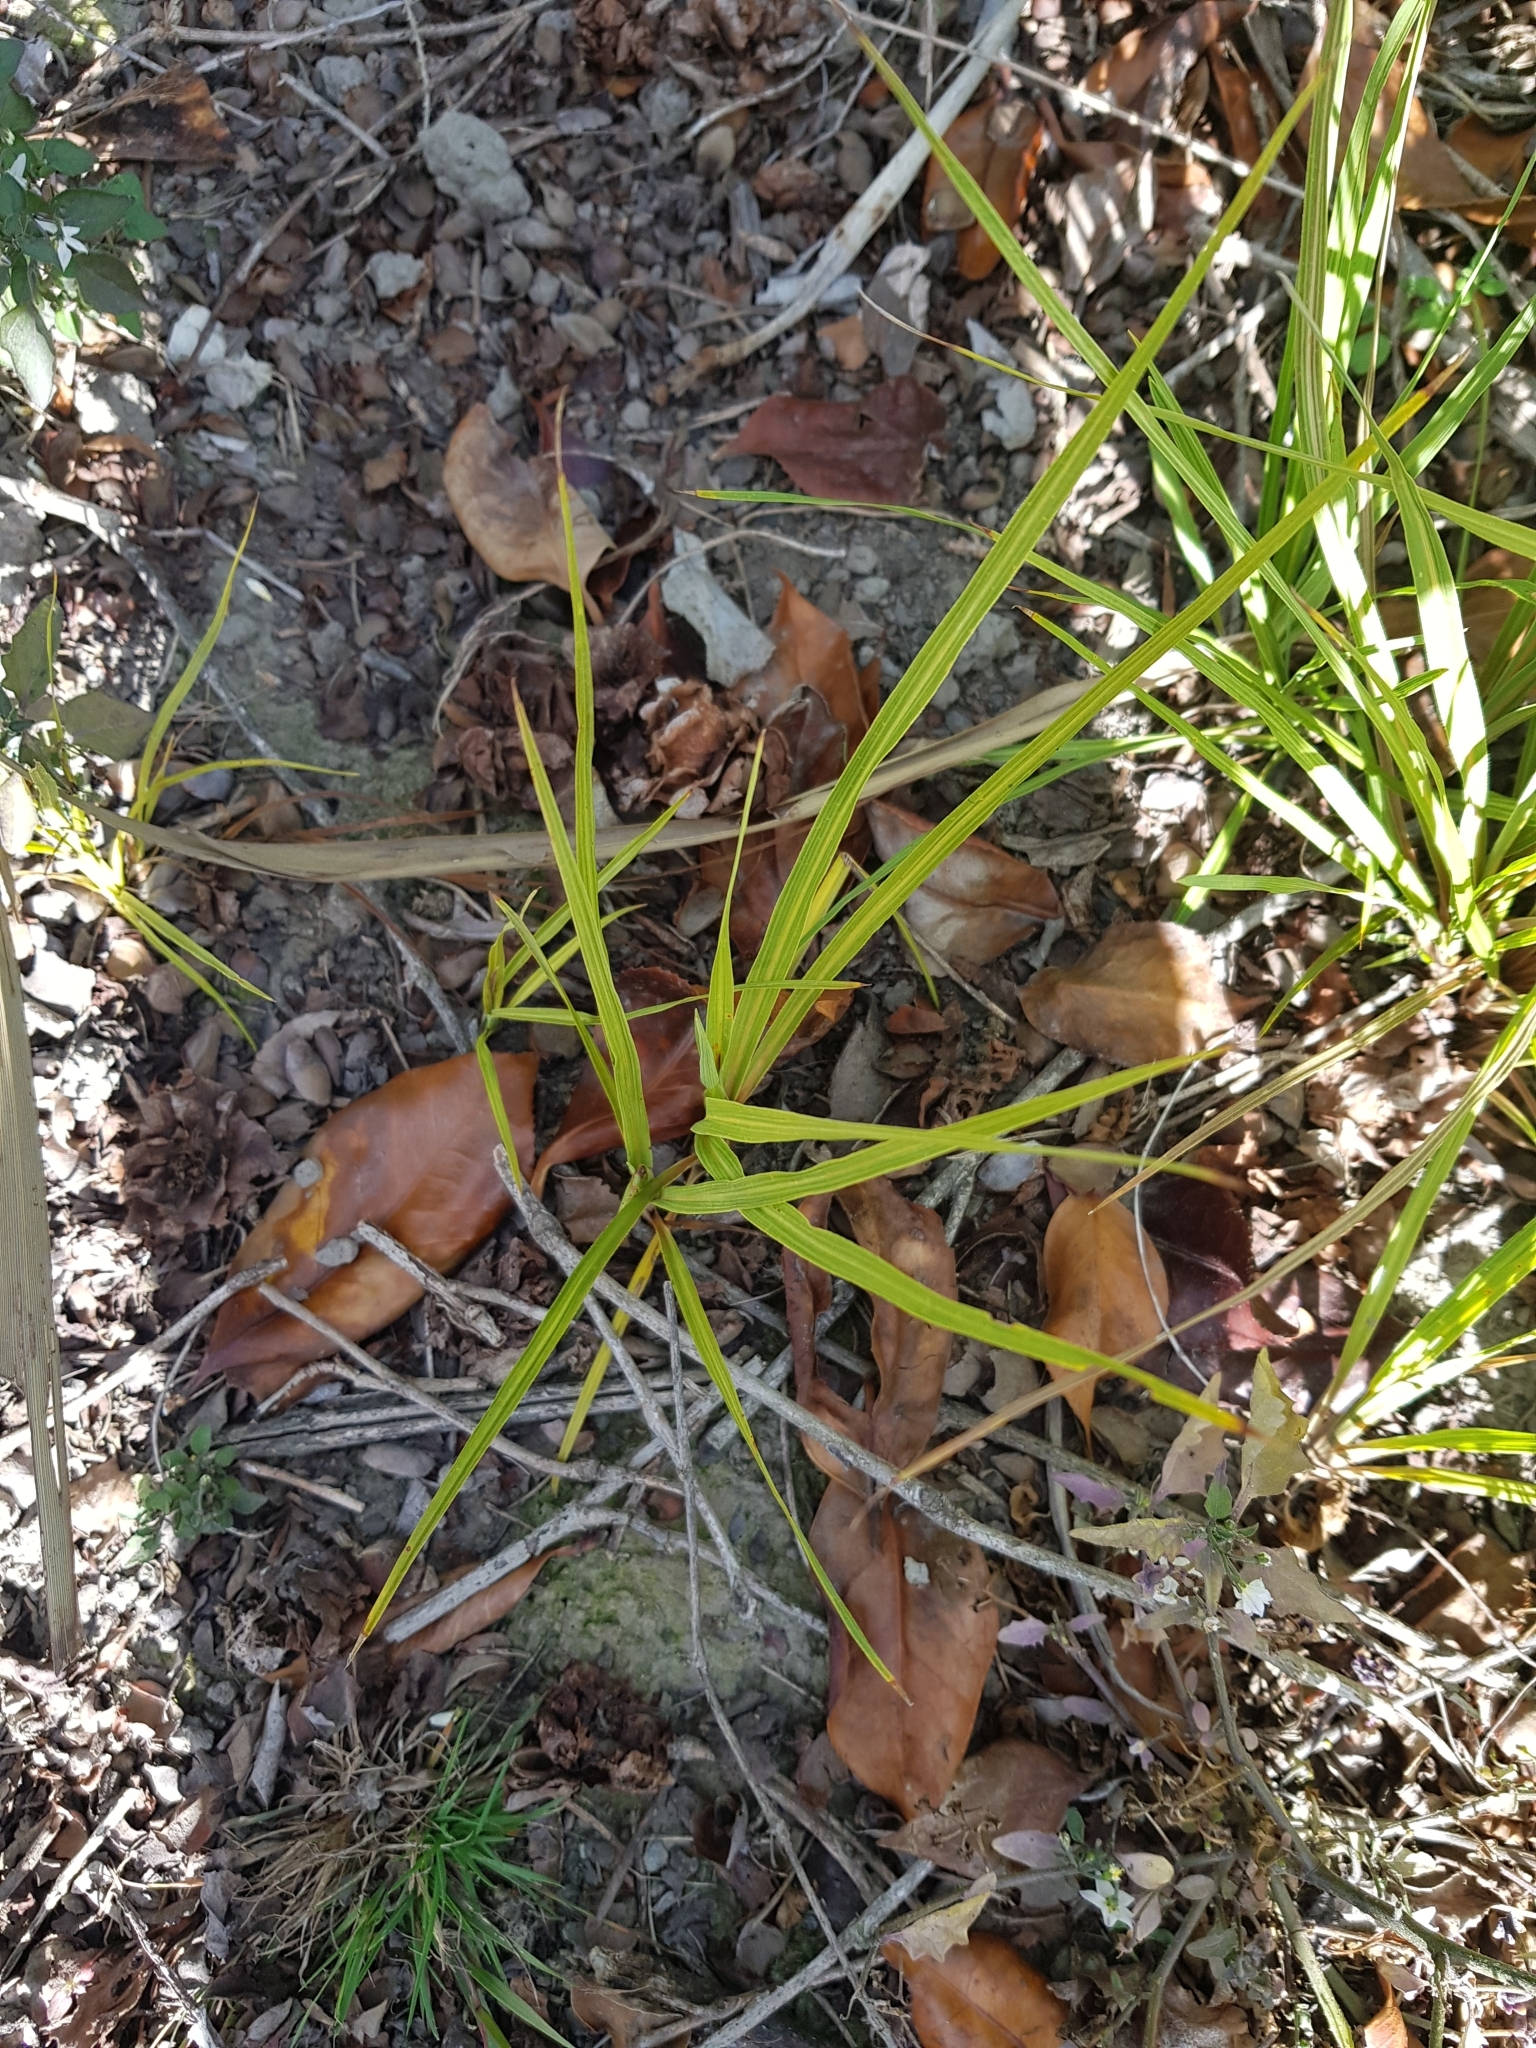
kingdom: Plantae
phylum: Tracheophyta
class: Liliopsida
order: Asparagales
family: Asparagaceae
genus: Cordyline
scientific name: Cordyline australis
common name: Cabbage-palm
